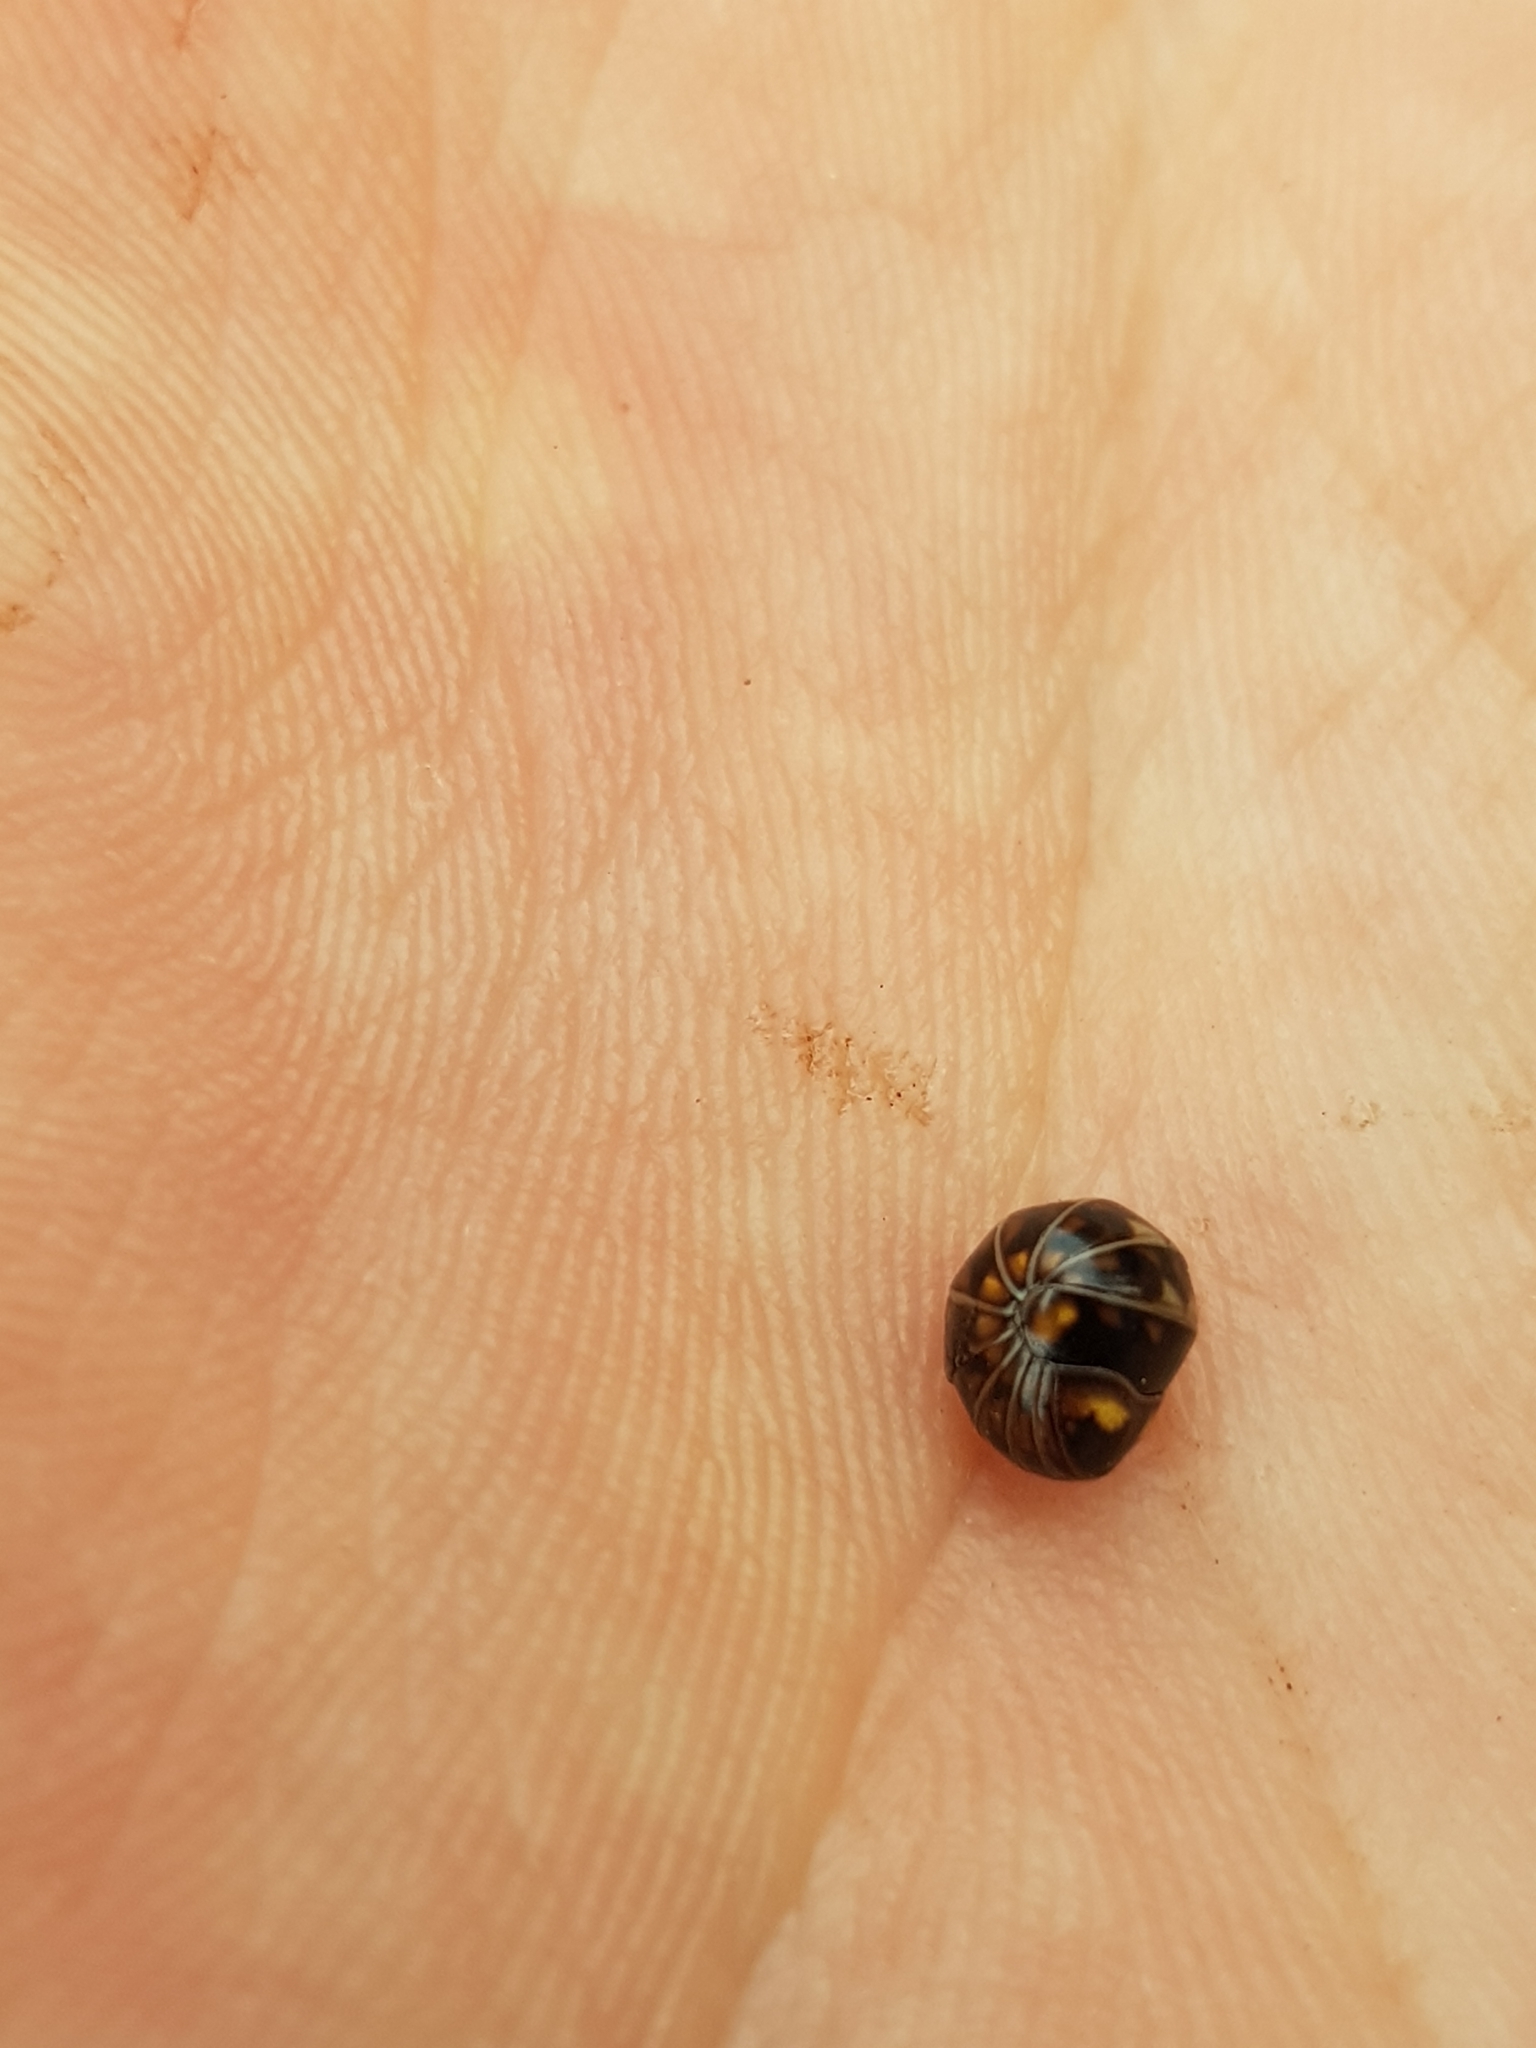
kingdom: Animalia
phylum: Arthropoda
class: Diplopoda
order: Glomerida
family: Glomeridae
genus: Glomeris
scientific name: Glomeris hexasticha
